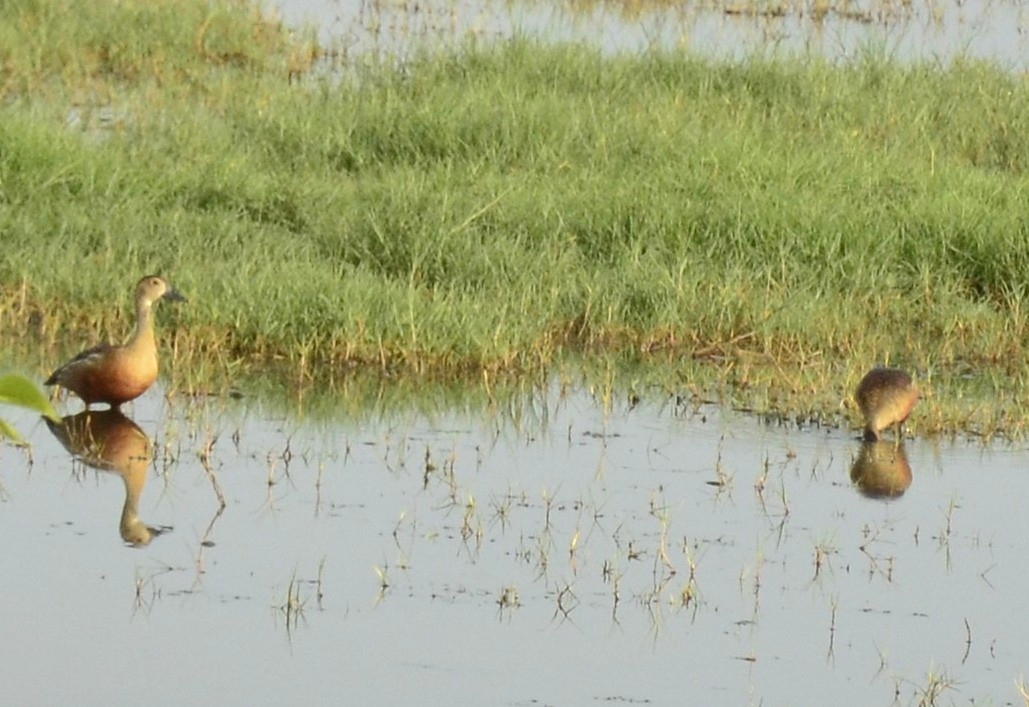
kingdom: Animalia
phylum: Chordata
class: Aves
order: Anseriformes
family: Anatidae
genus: Dendrocygna
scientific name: Dendrocygna javanica
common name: Lesser whistling-duck
